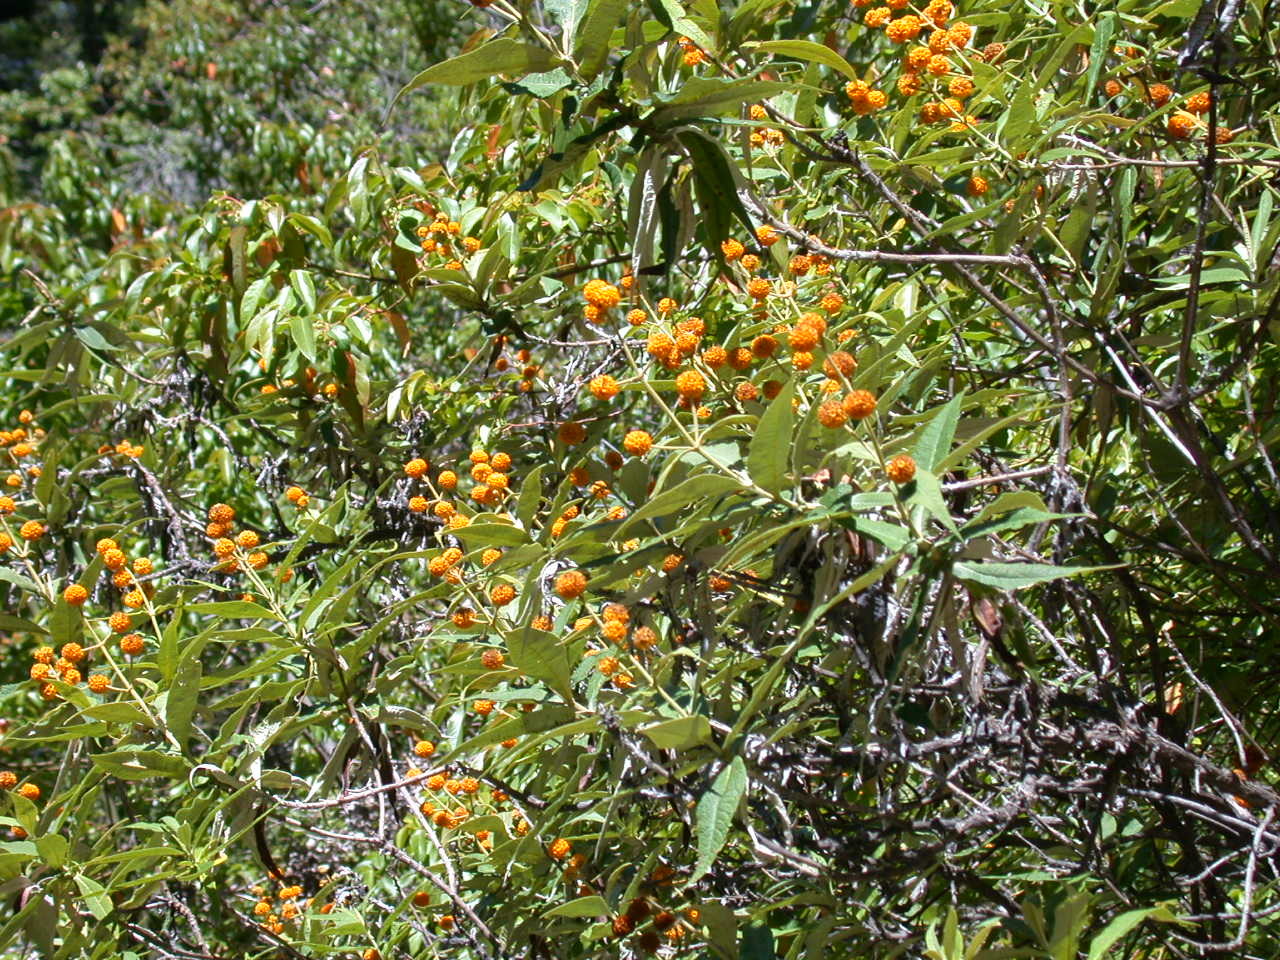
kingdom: Plantae
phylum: Tracheophyta
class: Magnoliopsida
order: Lamiales
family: Scrophulariaceae
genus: Buddleja
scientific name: Buddleja globosa
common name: Orange-ball-tree
